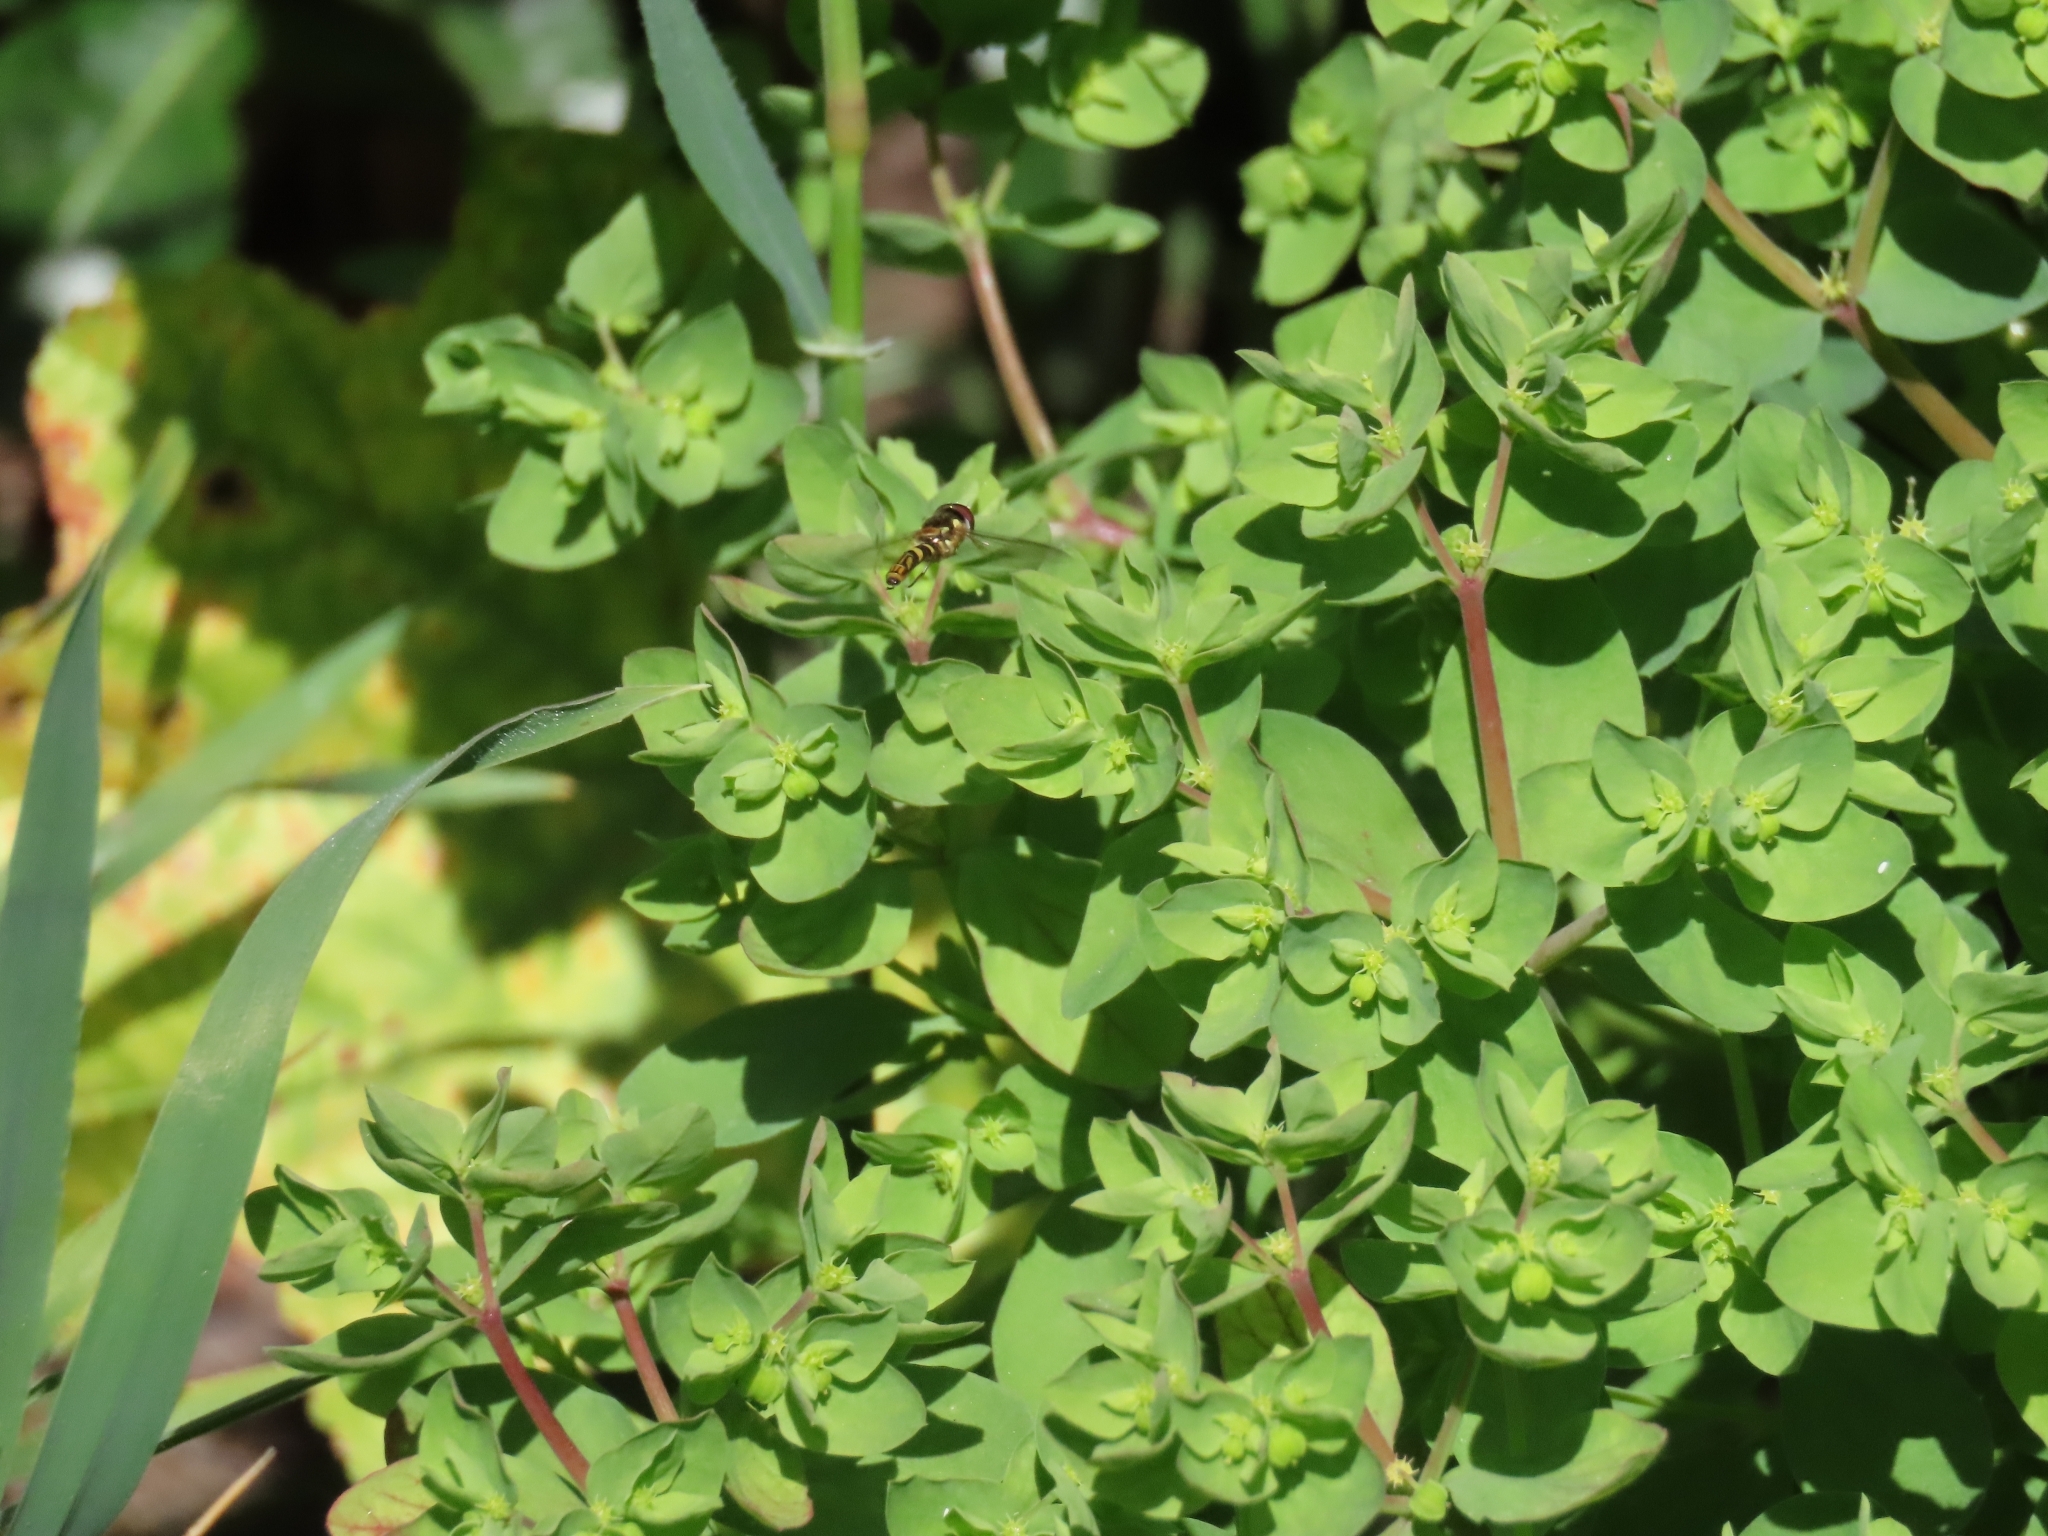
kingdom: Animalia
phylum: Arthropoda
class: Insecta
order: Diptera
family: Syrphidae
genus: Allograpta
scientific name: Allograpta obliqua
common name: Common oblique syrphid
